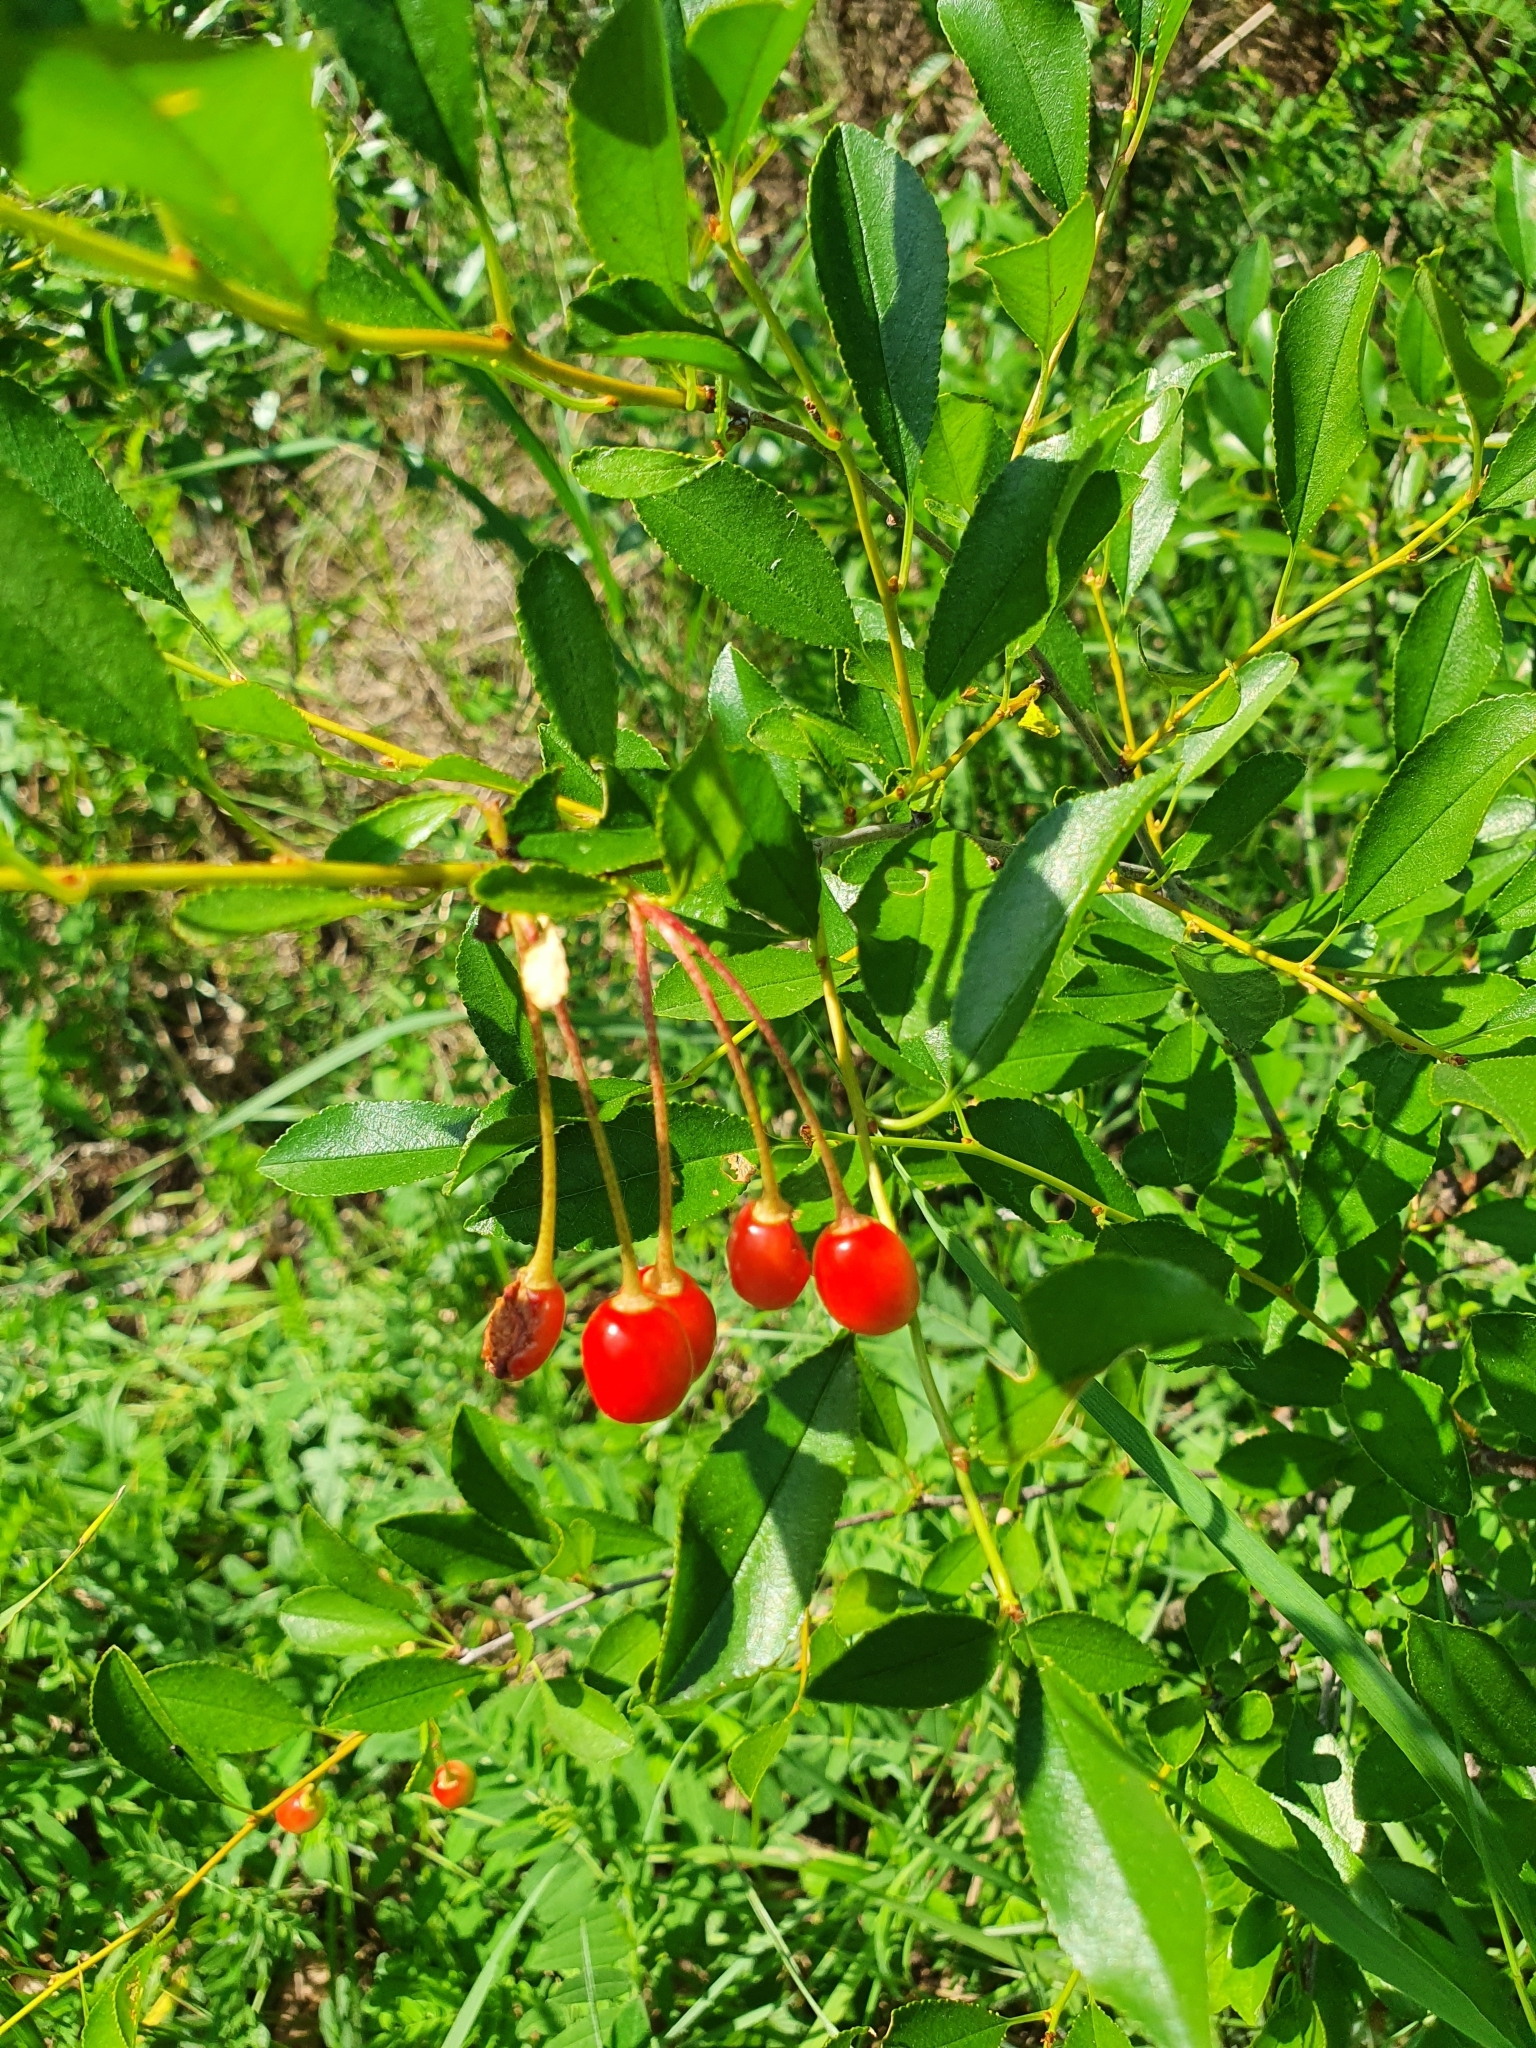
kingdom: Plantae
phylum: Tracheophyta
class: Magnoliopsida
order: Rosales
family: Rosaceae
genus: Prunus
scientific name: Prunus fruticosa
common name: European dwarf cherry
